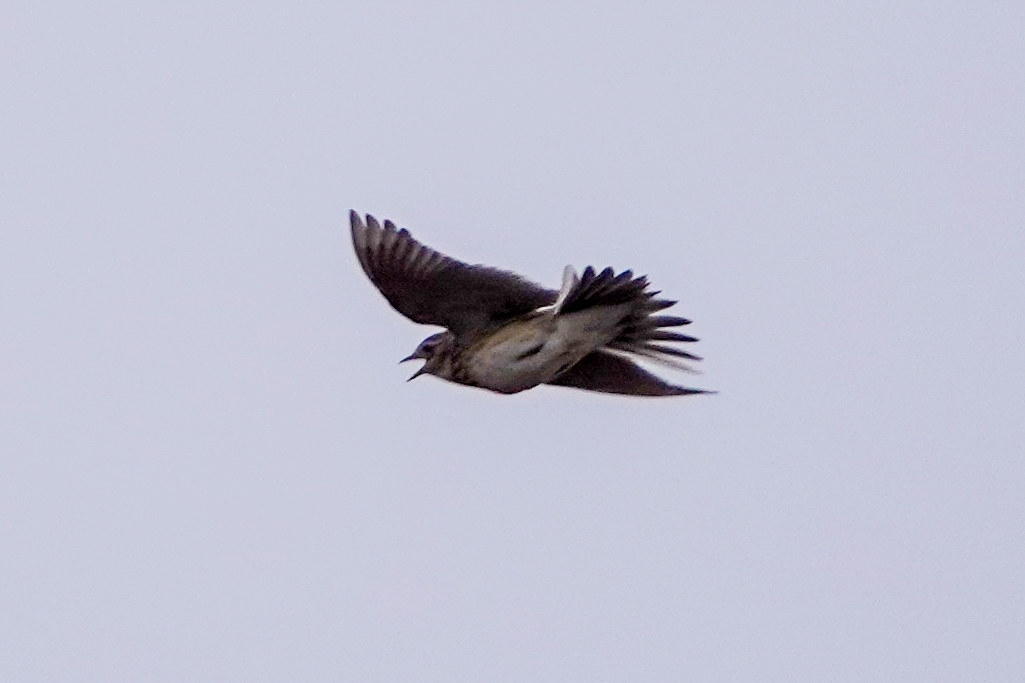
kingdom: Animalia
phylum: Chordata
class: Aves
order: Passeriformes
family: Alaudidae
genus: Alauda
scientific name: Alauda arvensis
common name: Eurasian skylark
